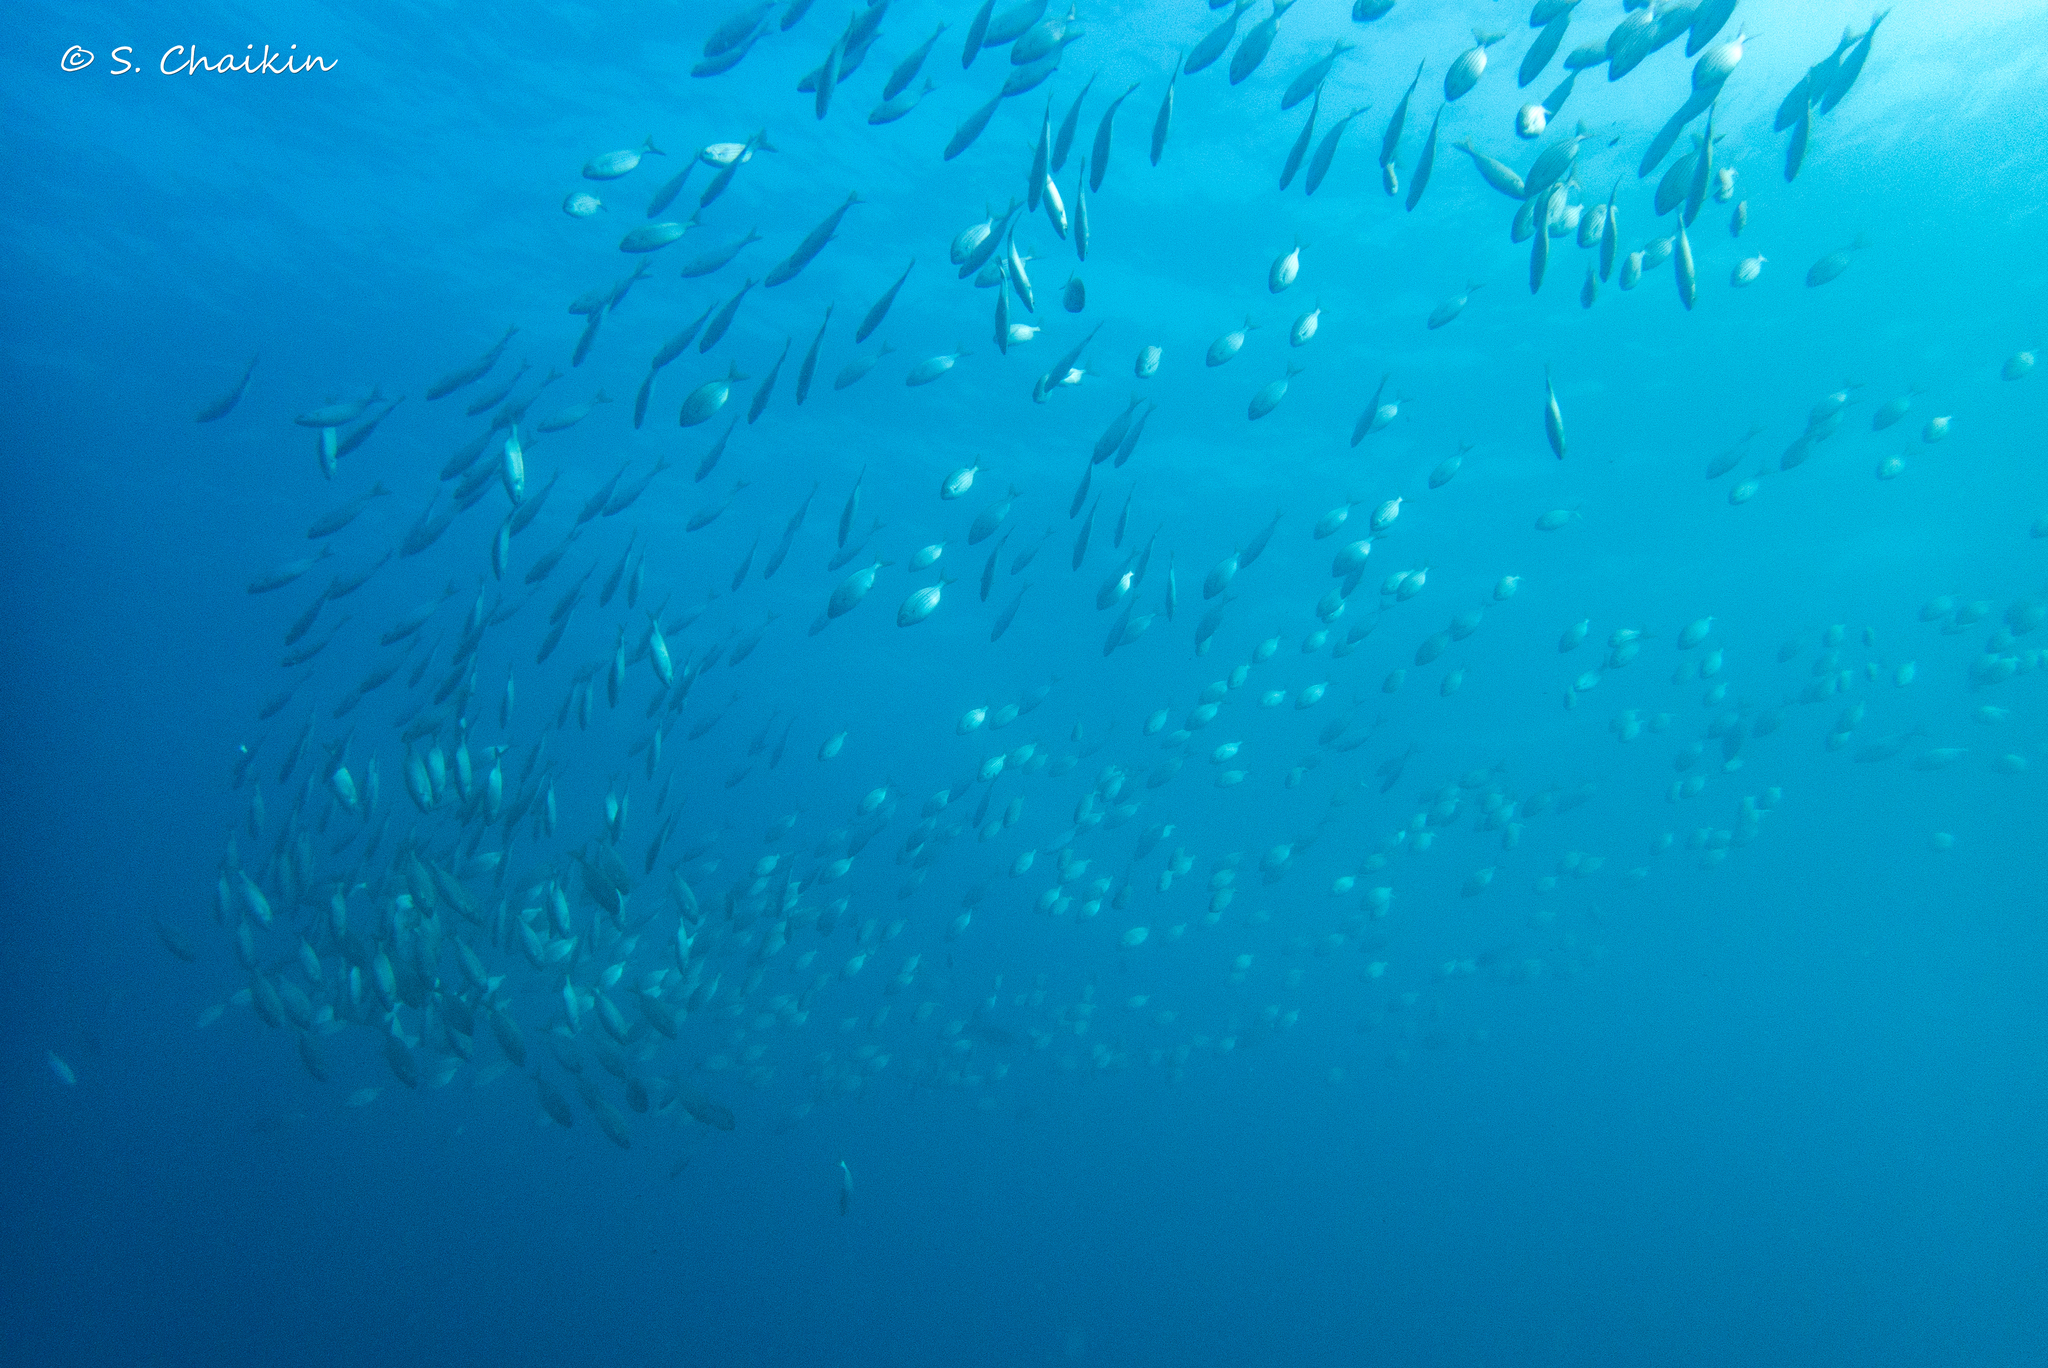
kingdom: Animalia
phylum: Chordata
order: Perciformes
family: Sparidae
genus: Sarpa
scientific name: Sarpa salpa
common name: Salema
